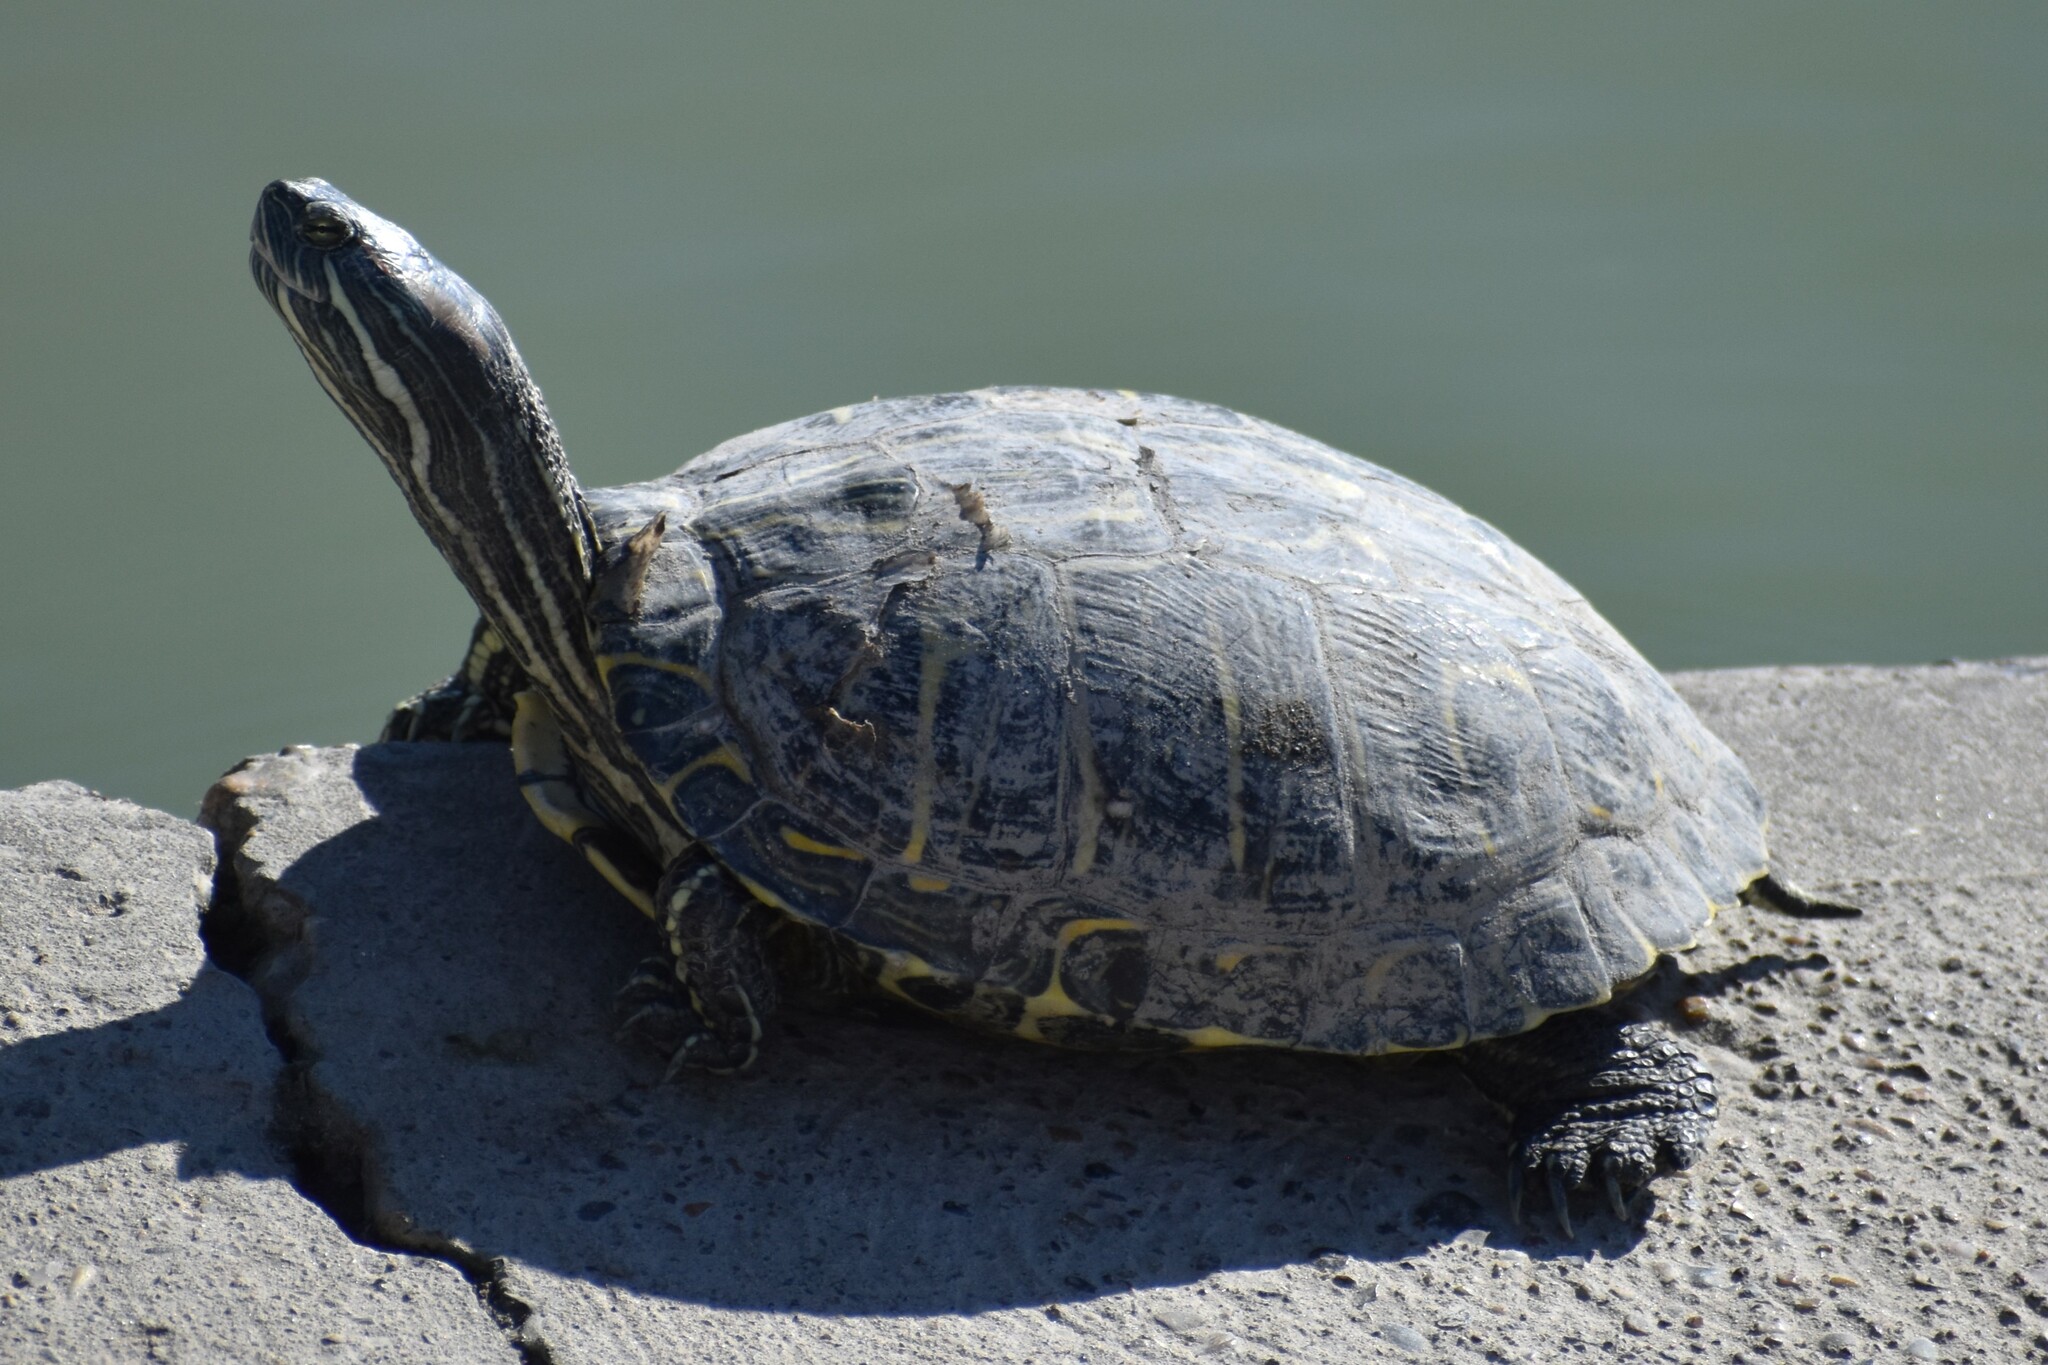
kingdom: Animalia
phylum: Chordata
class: Testudines
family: Emydidae
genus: Trachemys
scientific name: Trachemys scripta
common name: Slider
